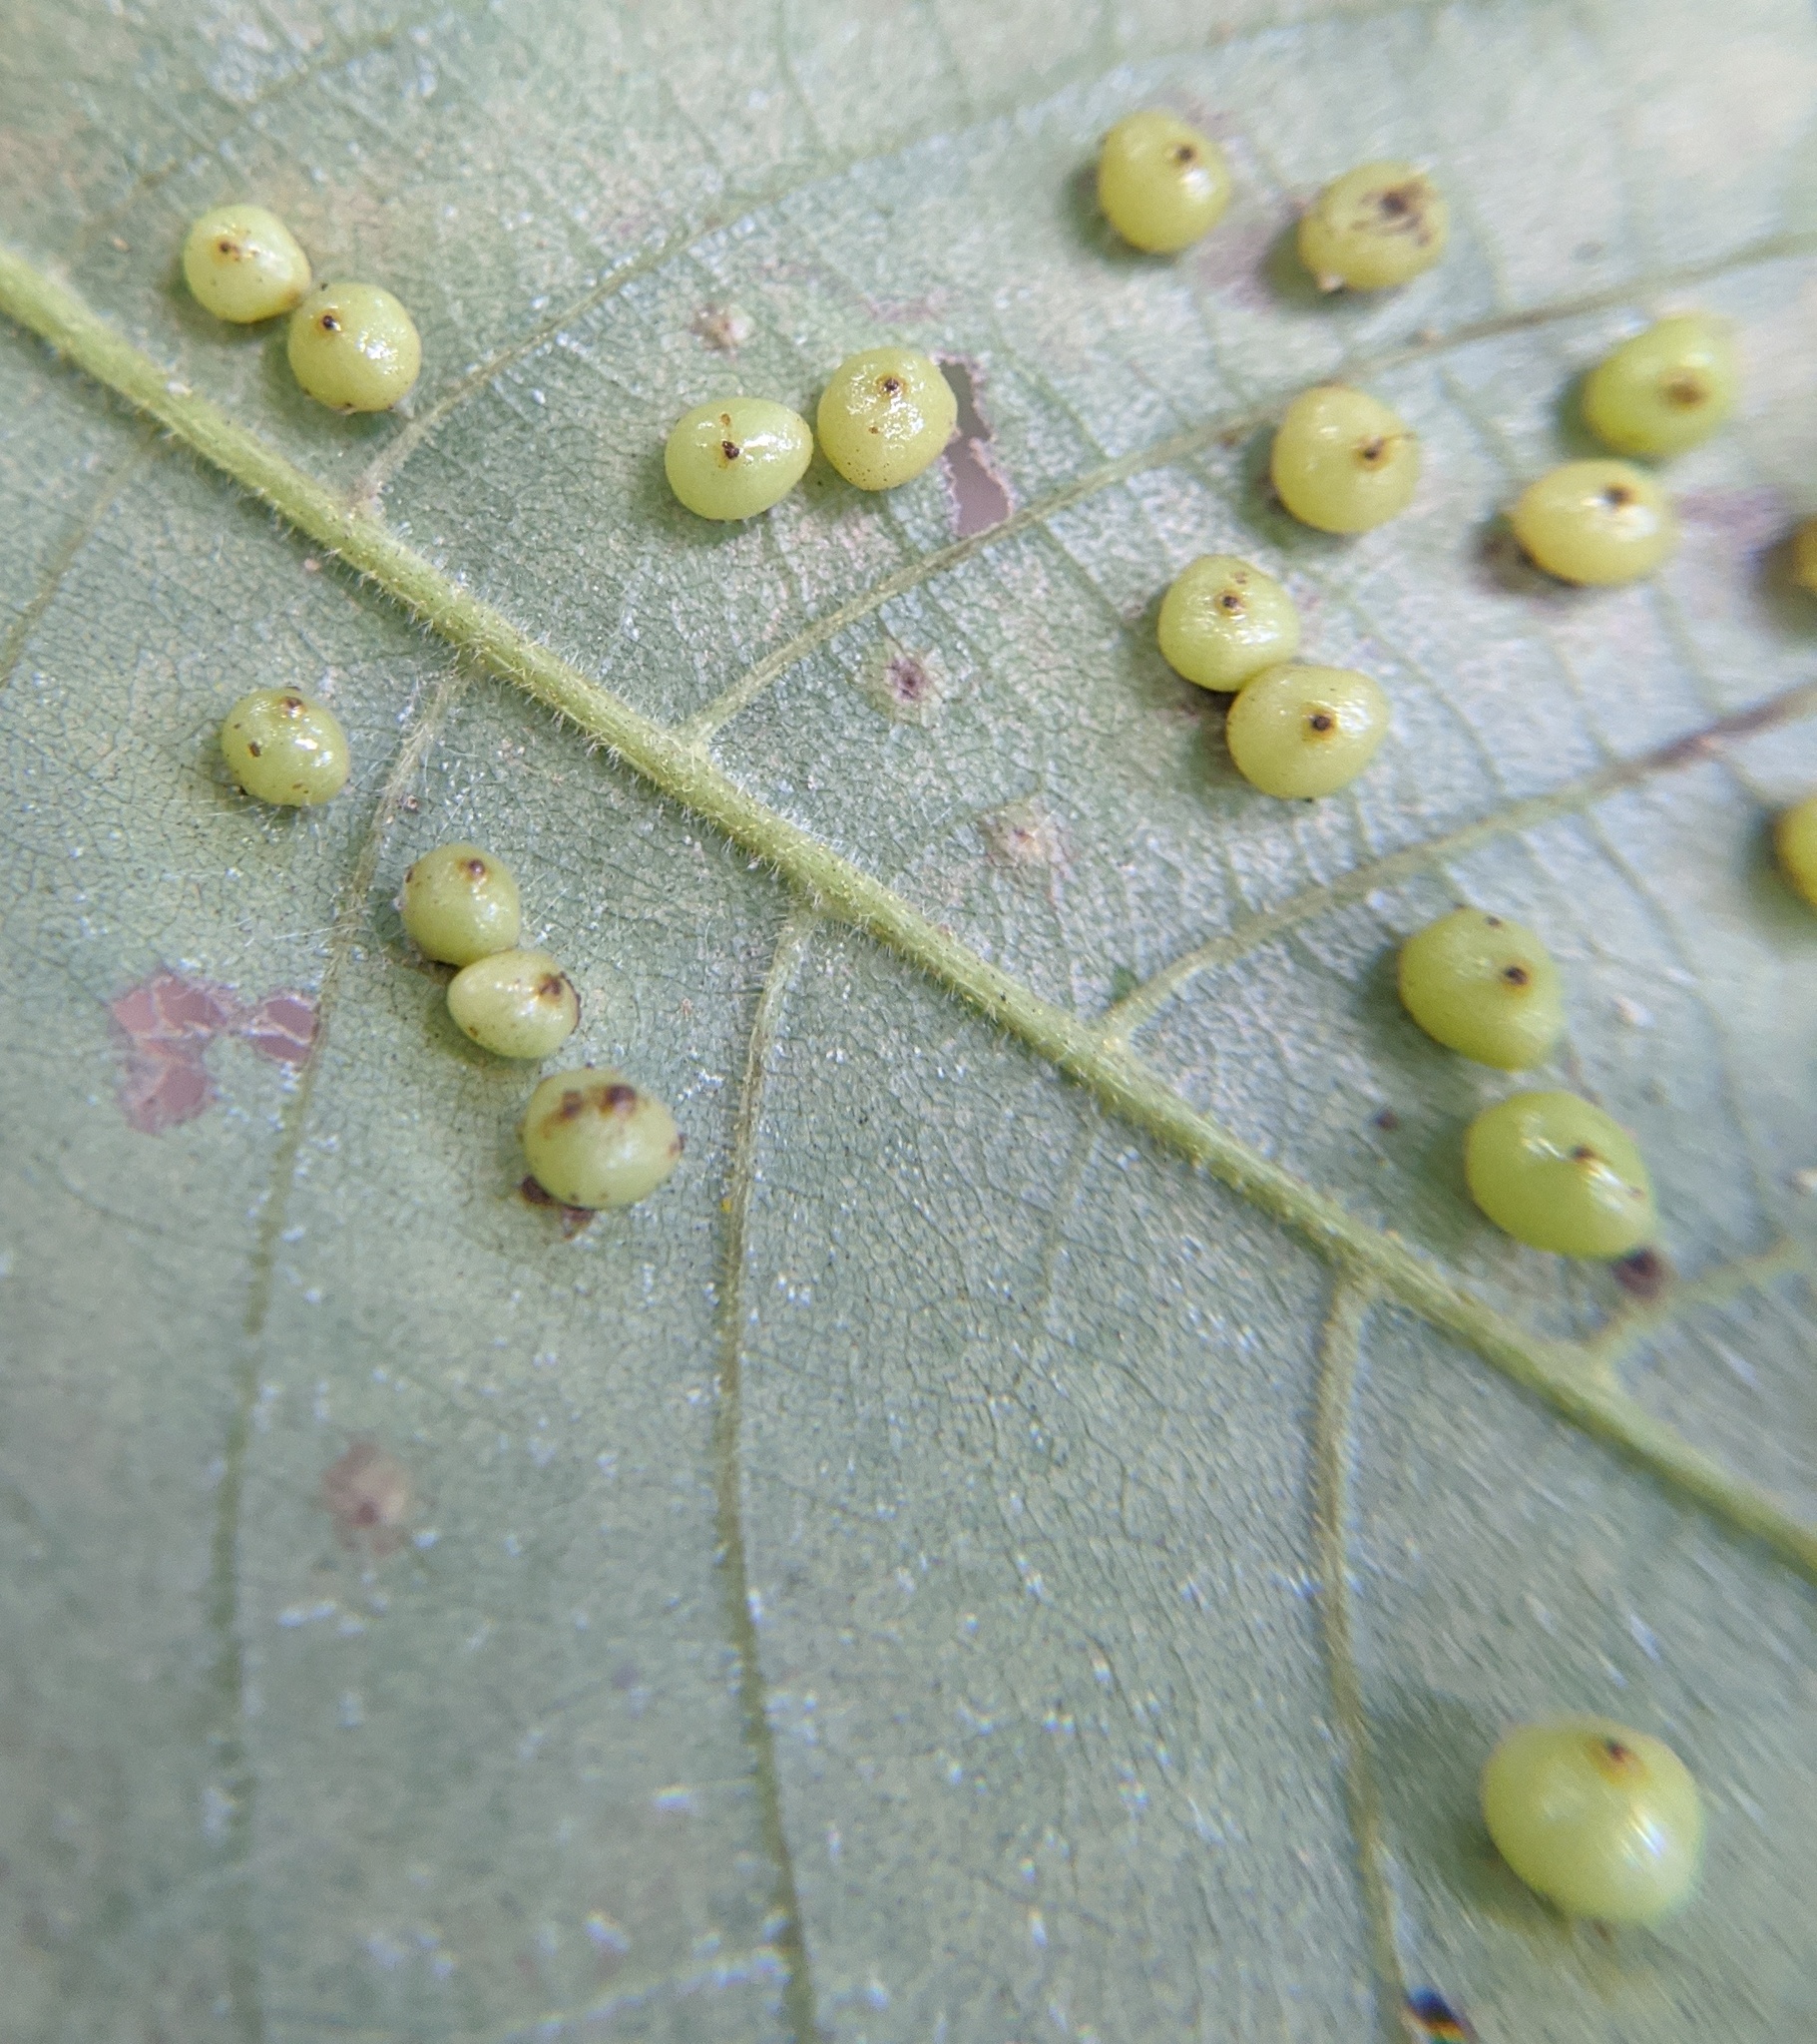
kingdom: Animalia
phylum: Arthropoda
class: Insecta
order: Diptera
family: Cecidomyiidae
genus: Caryomyia
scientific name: Caryomyia caryae
